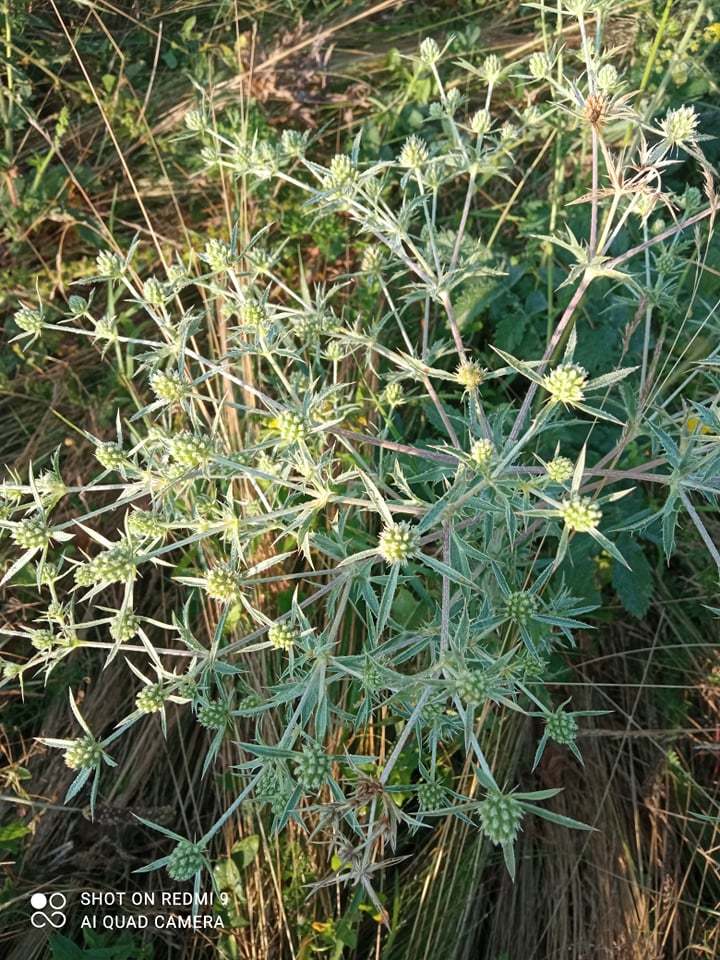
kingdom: Plantae
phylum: Tracheophyta
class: Magnoliopsida
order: Apiales
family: Apiaceae
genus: Eryngium
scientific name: Eryngium campestre
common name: Field eryngo
